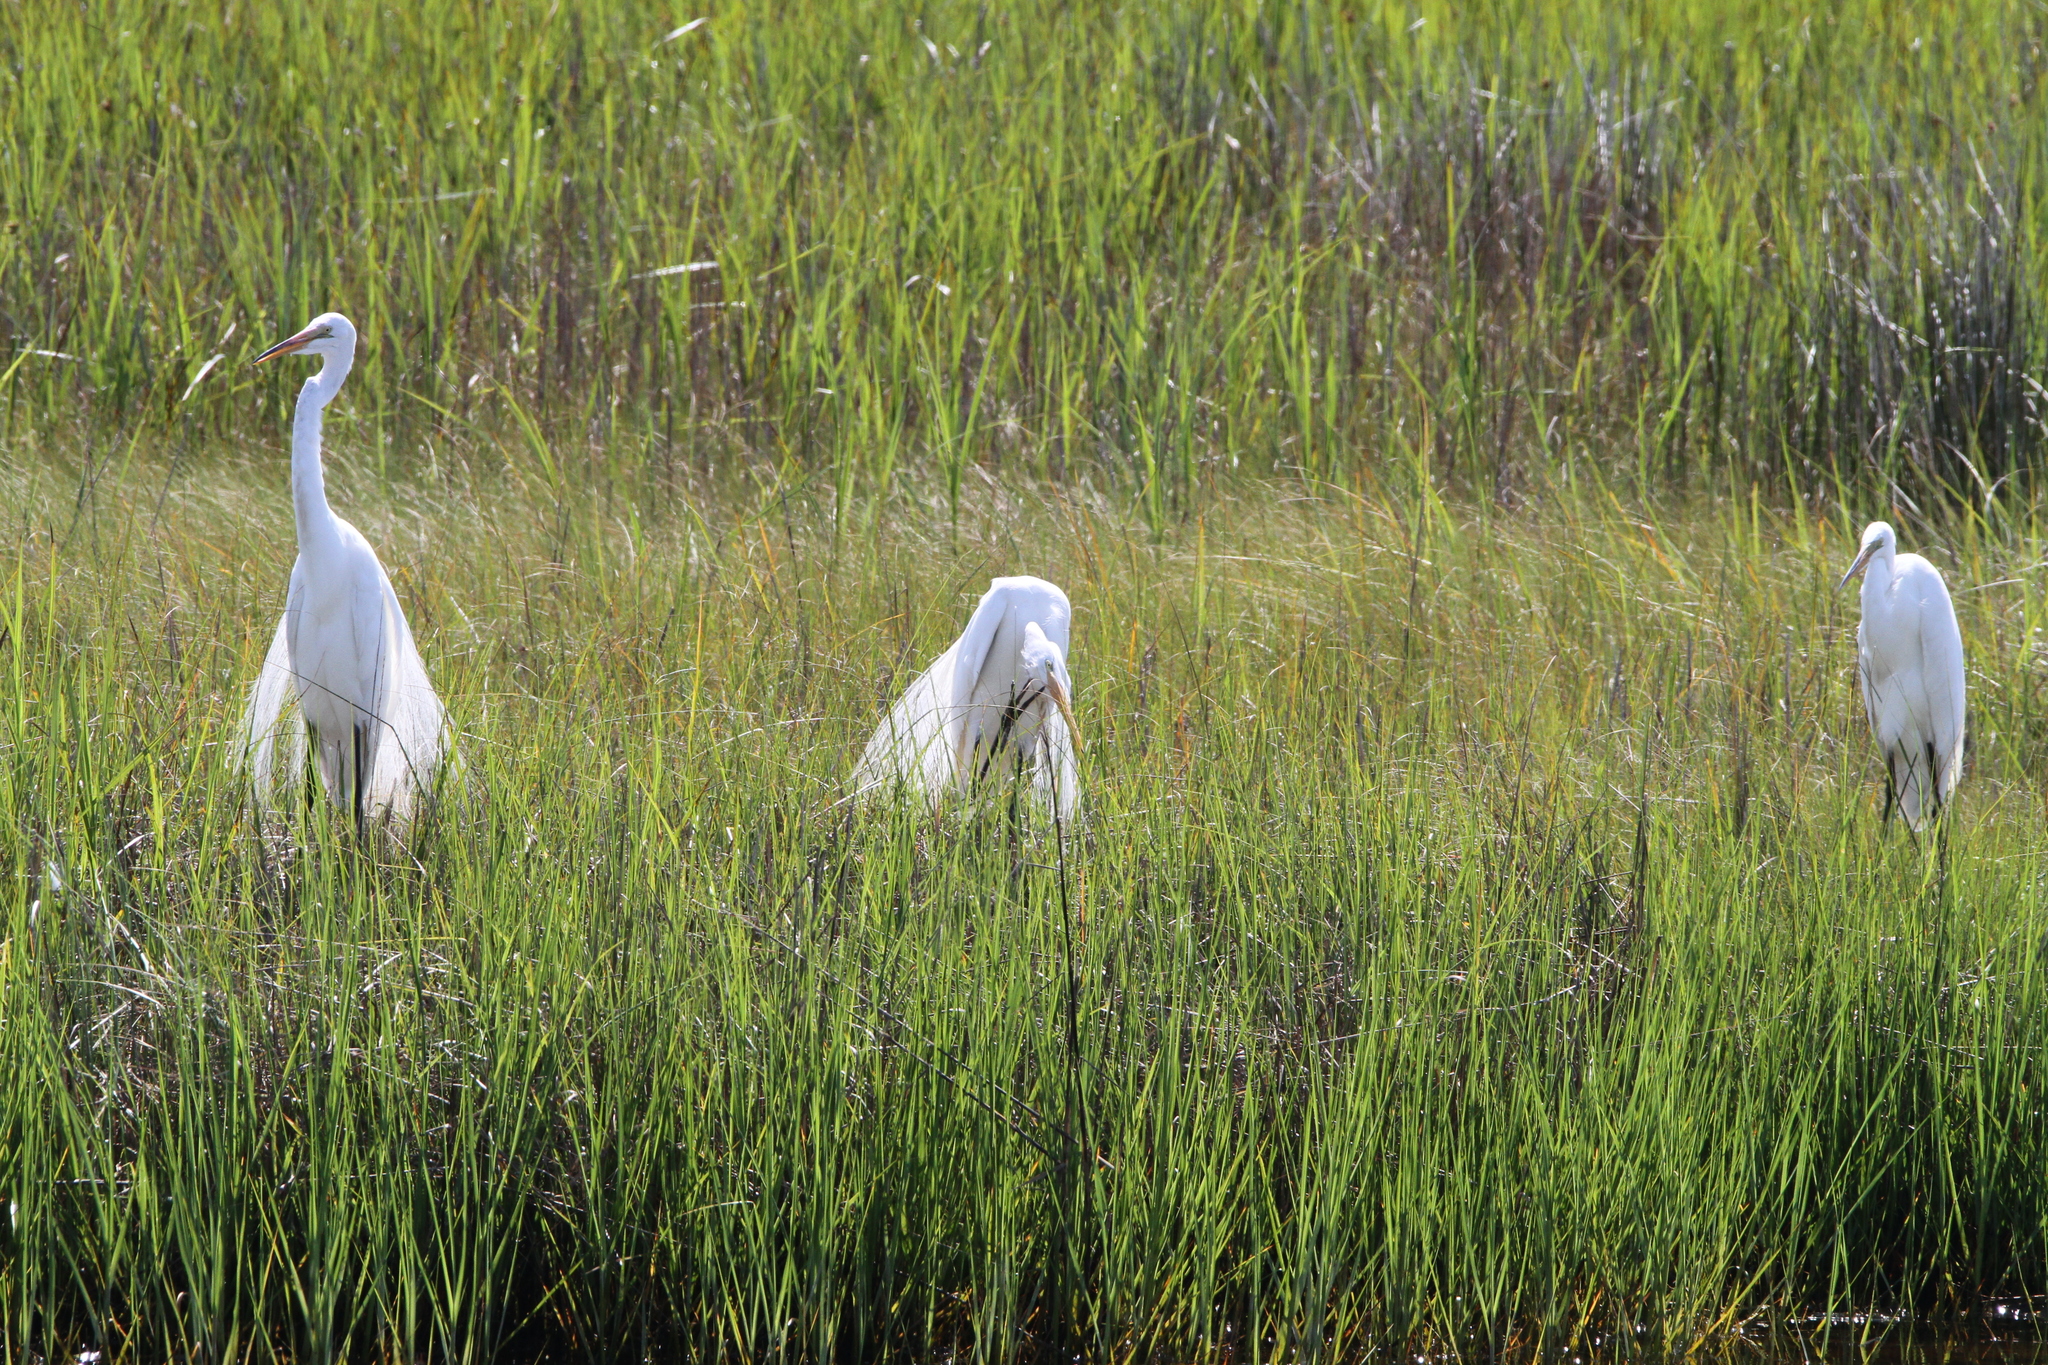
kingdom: Animalia
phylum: Chordata
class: Aves
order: Pelecaniformes
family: Ardeidae
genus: Ardea
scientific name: Ardea alba
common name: Great egret
